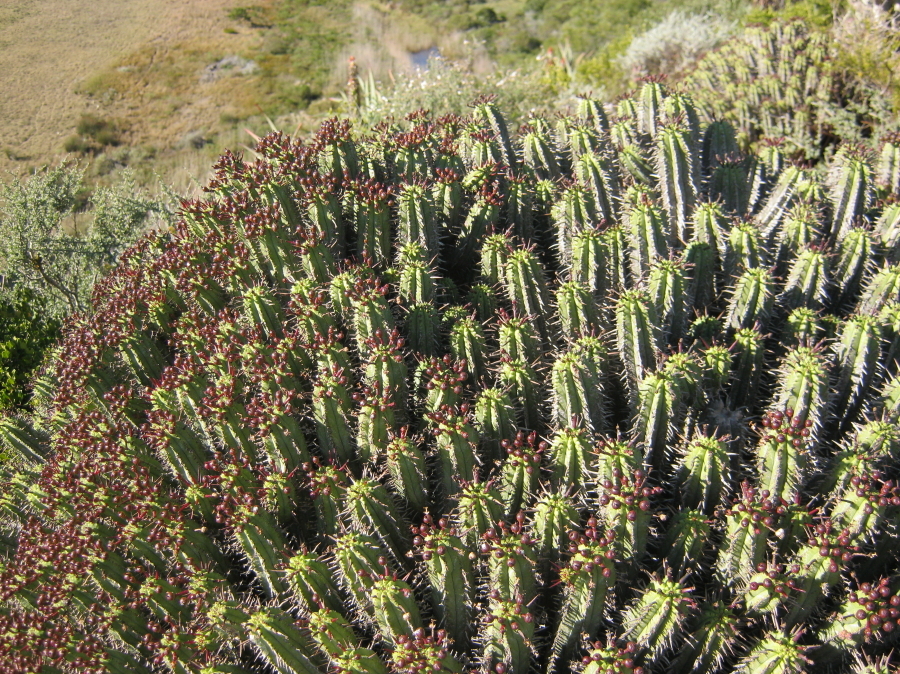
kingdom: Plantae
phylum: Tracheophyta
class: Magnoliopsida
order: Malpighiales
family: Euphorbiaceae
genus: Euphorbia
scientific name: Euphorbia heptagona
